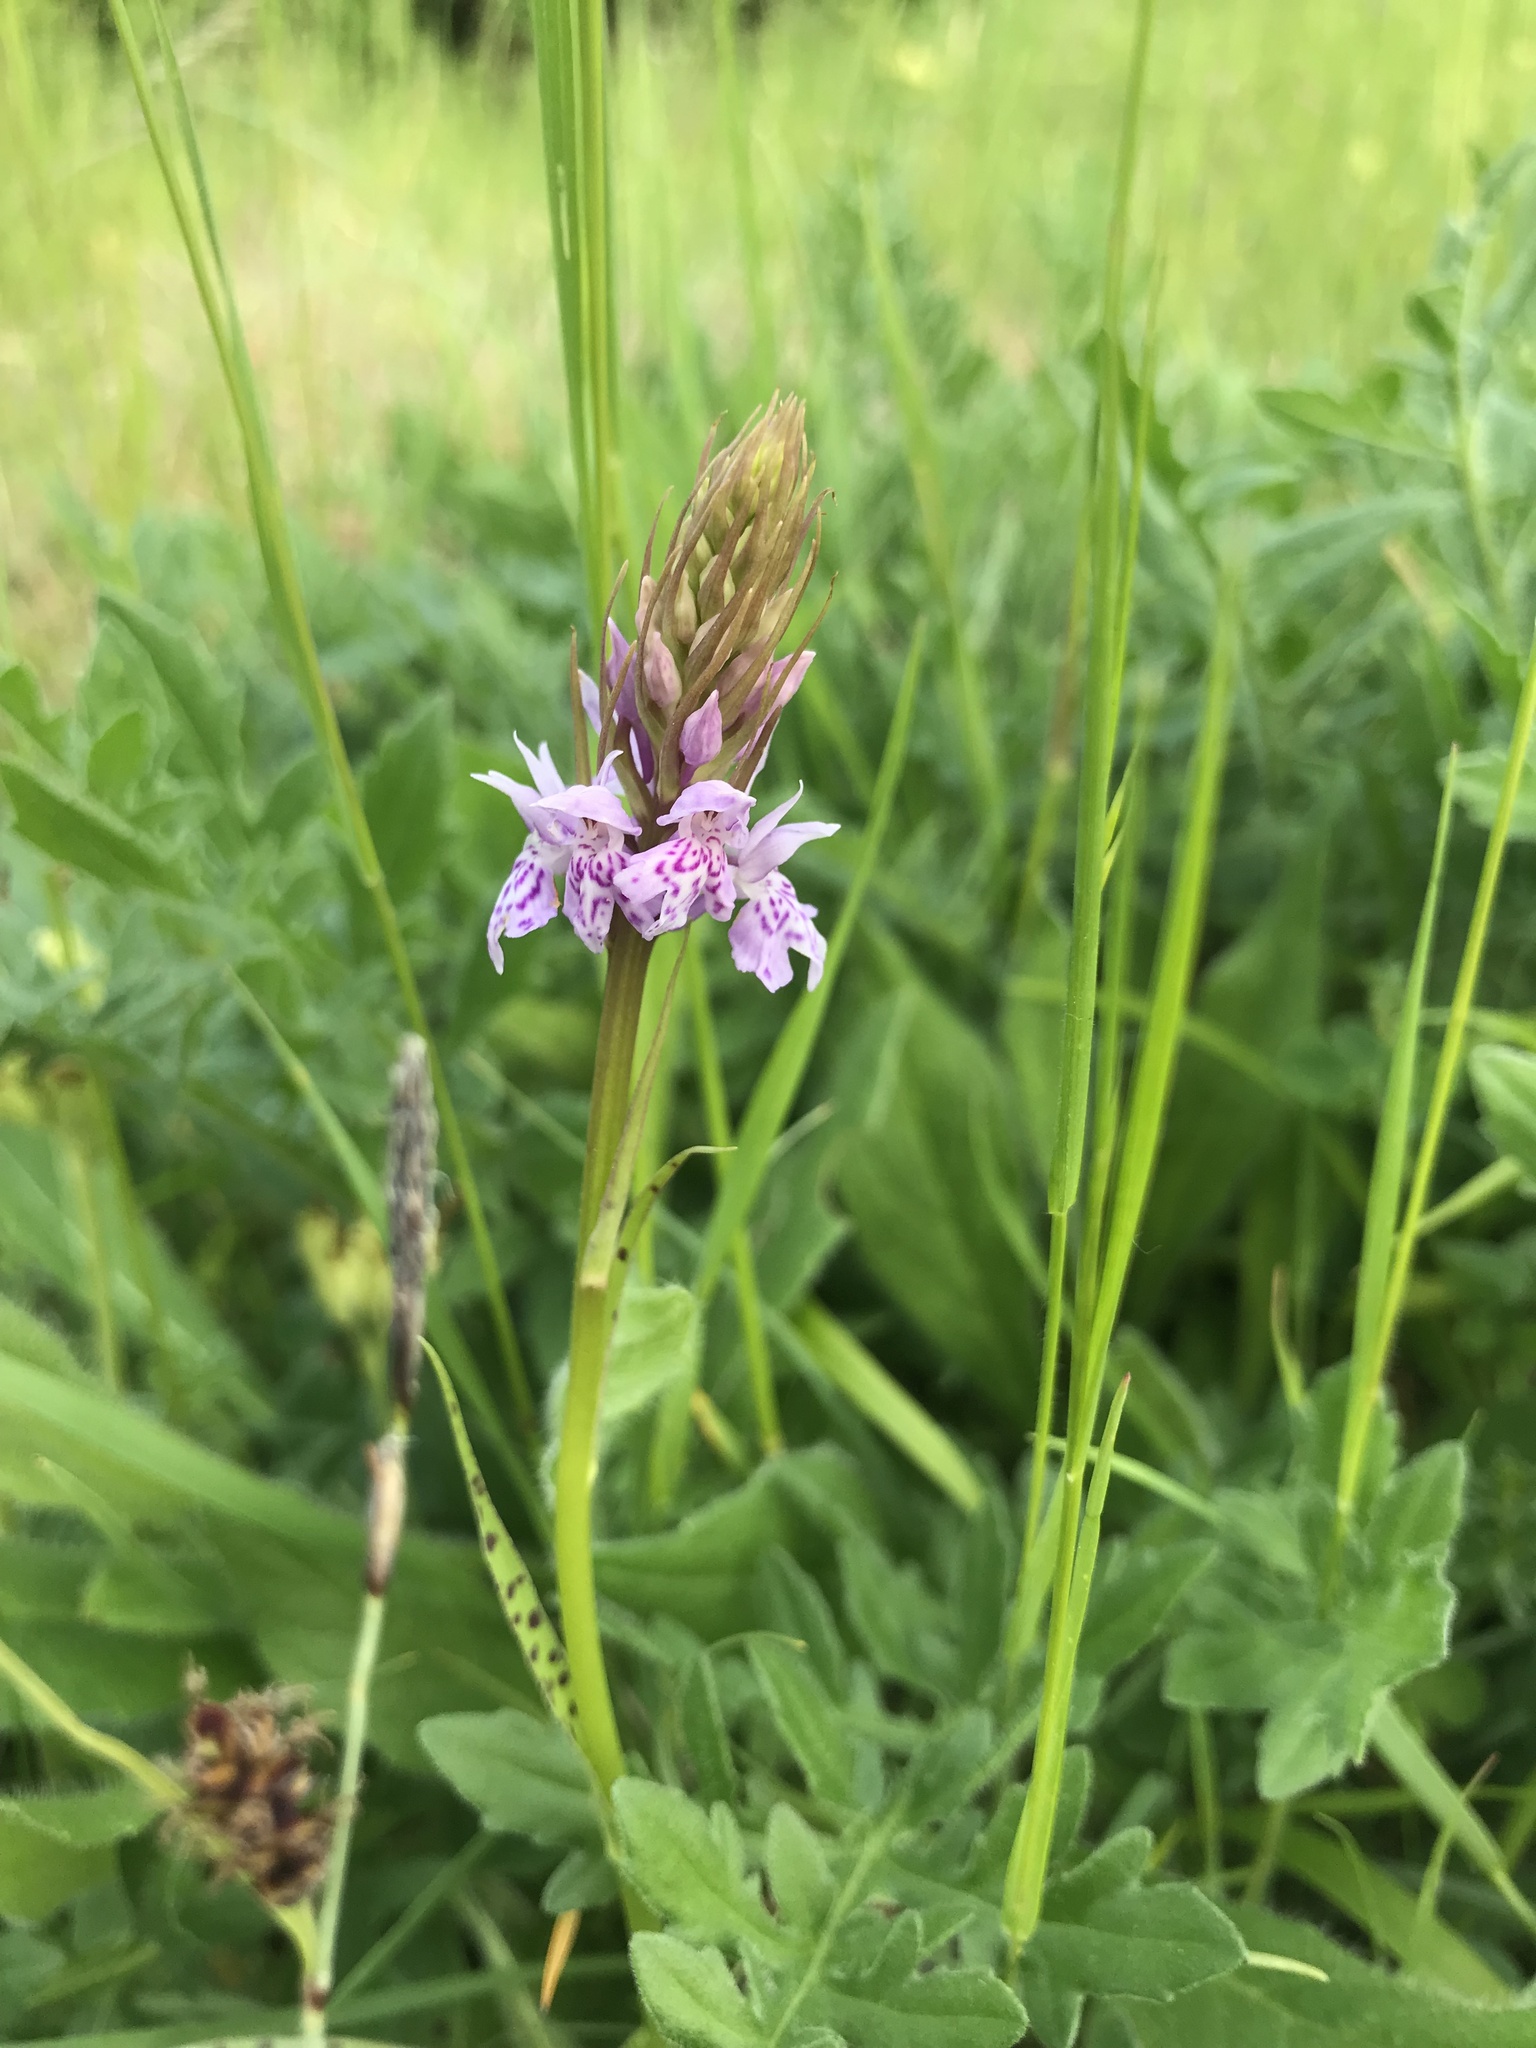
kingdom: Plantae
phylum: Tracheophyta
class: Liliopsida
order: Asparagales
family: Orchidaceae
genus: Dactylorhiza
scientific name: Dactylorhiza maculata
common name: Heath spotted-orchid
